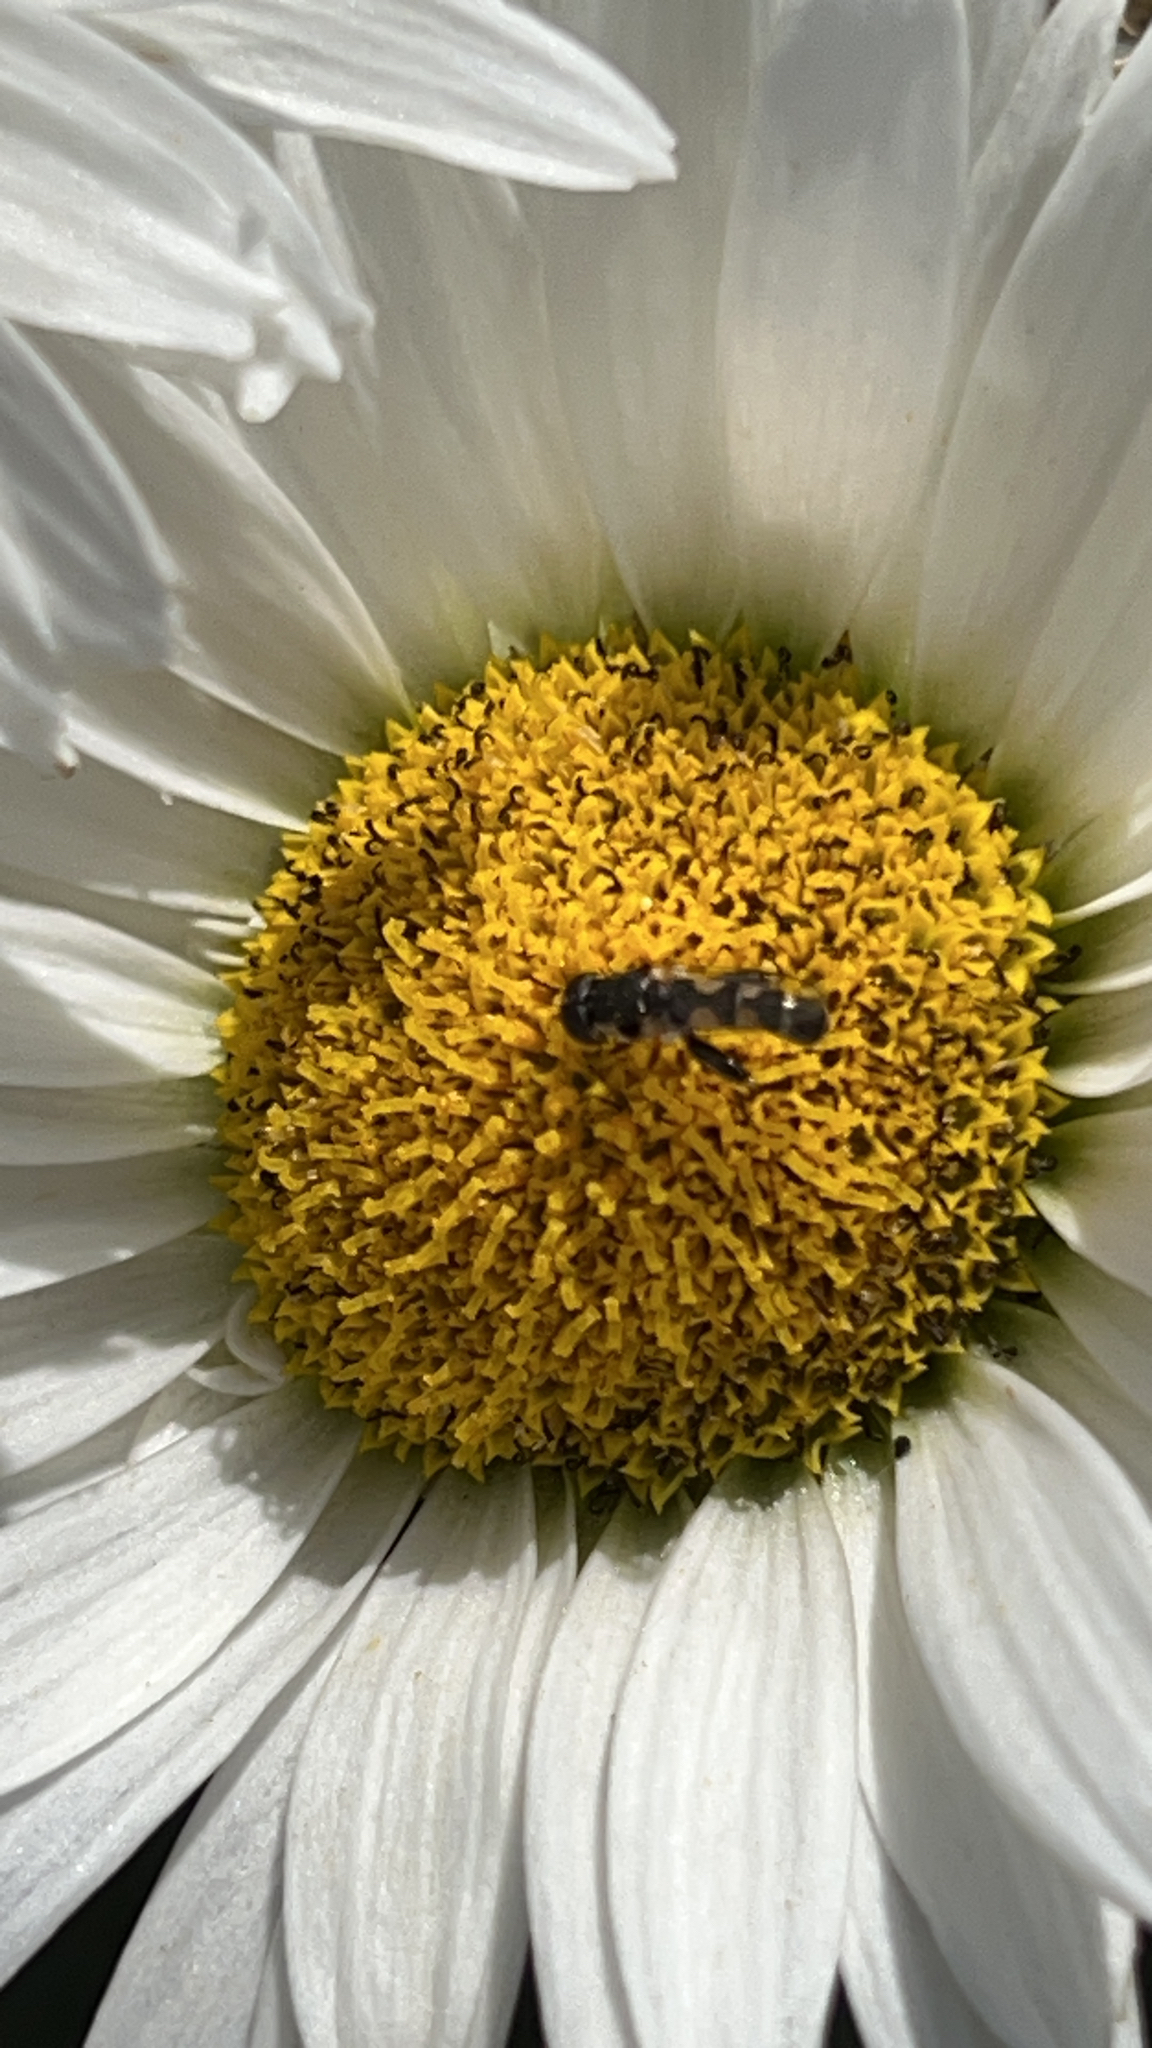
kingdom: Animalia
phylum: Arthropoda
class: Insecta
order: Diptera
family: Syrphidae
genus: Syritta
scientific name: Syritta pipiens
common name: Hover fly
